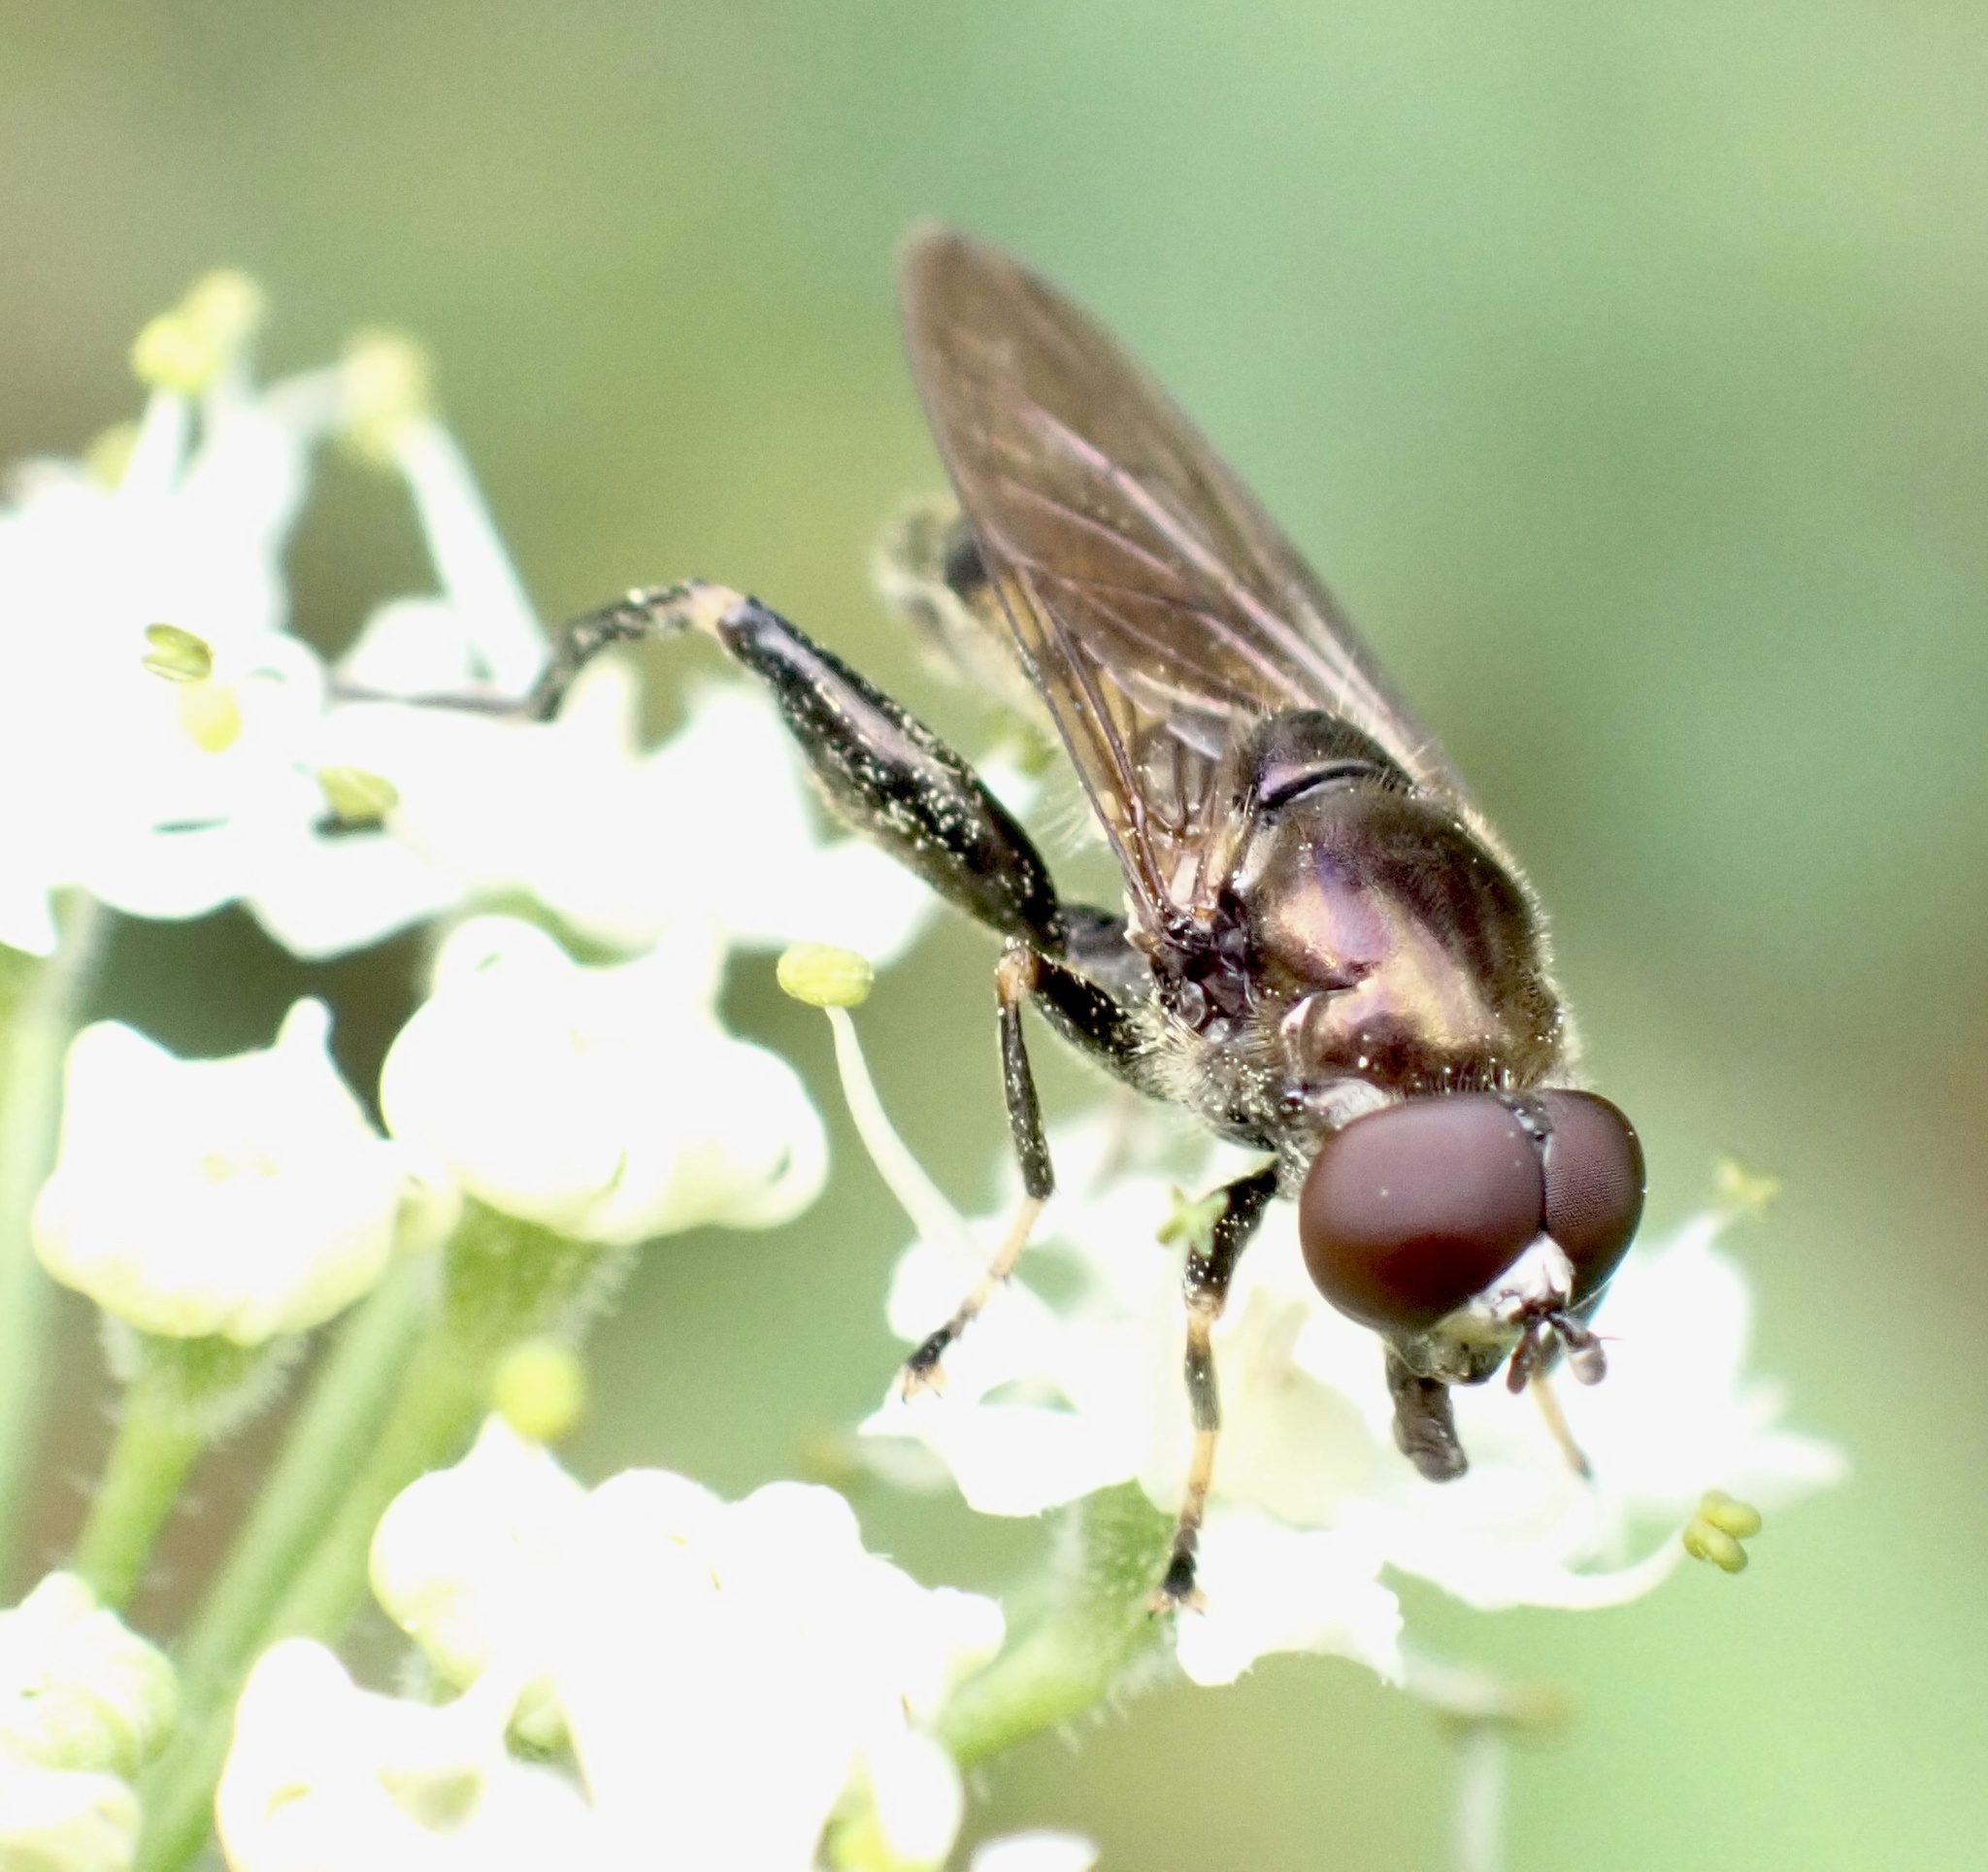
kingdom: Animalia
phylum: Arthropoda
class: Insecta
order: Diptera
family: Syrphidae
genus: Chalcosyrphus
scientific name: Chalcosyrphus nemorum
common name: Dusky-banded forest fly
